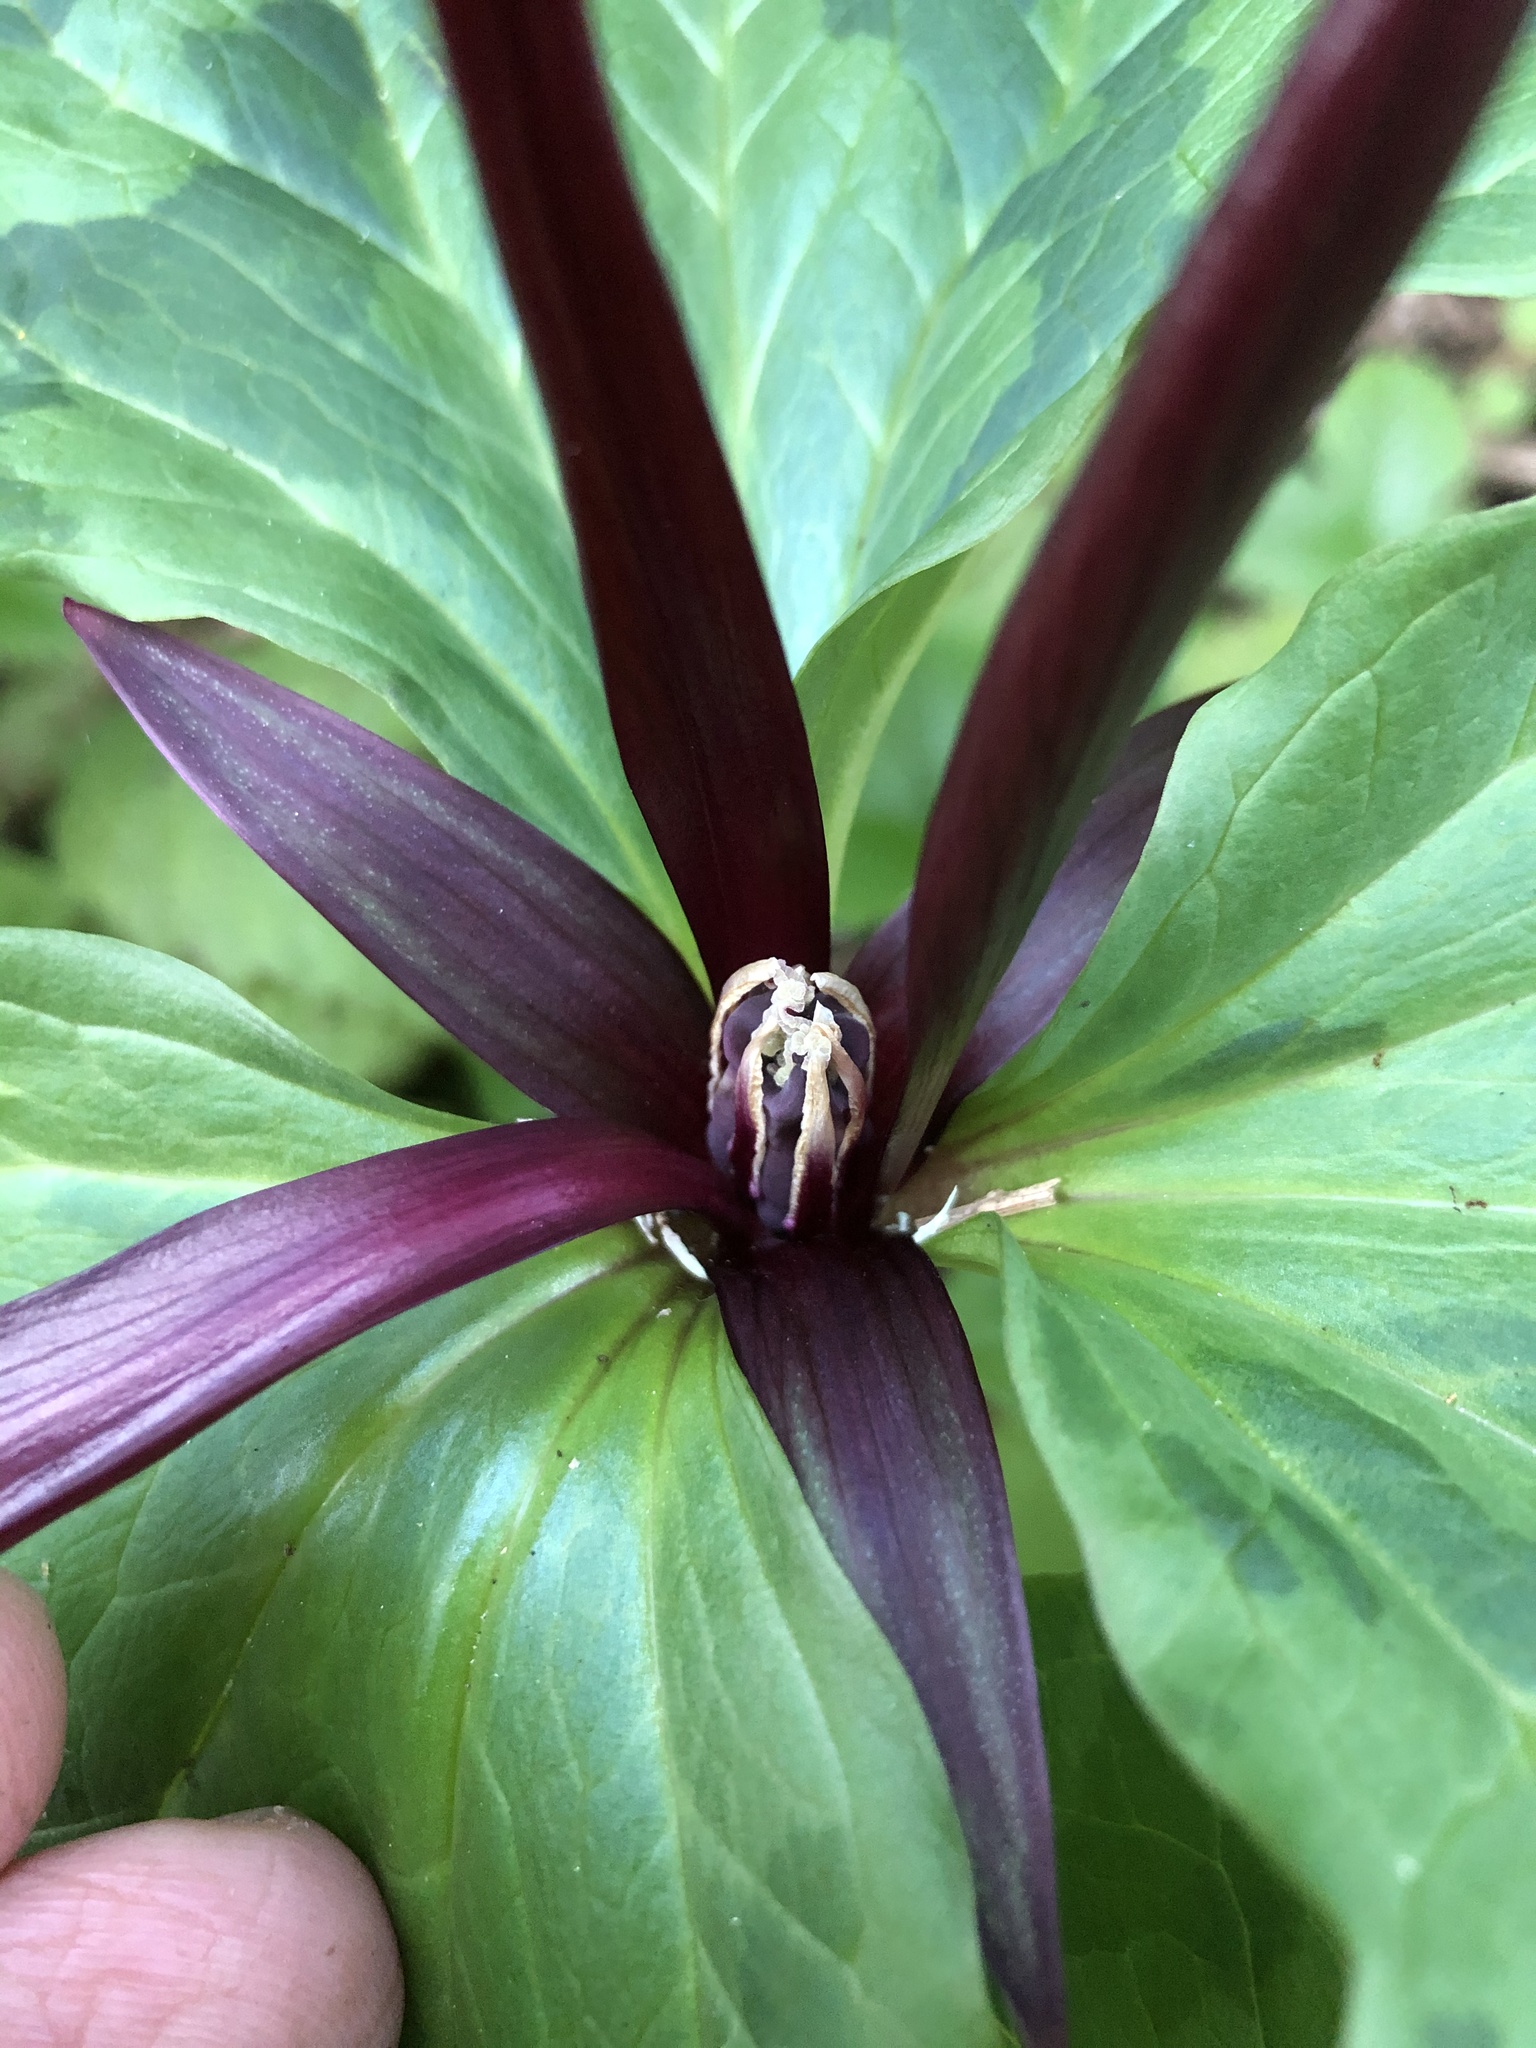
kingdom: Plantae
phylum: Tracheophyta
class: Liliopsida
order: Liliales
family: Melanthiaceae
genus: Trillium
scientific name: Trillium angustipetalum
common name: Narrow-petaled trillium
